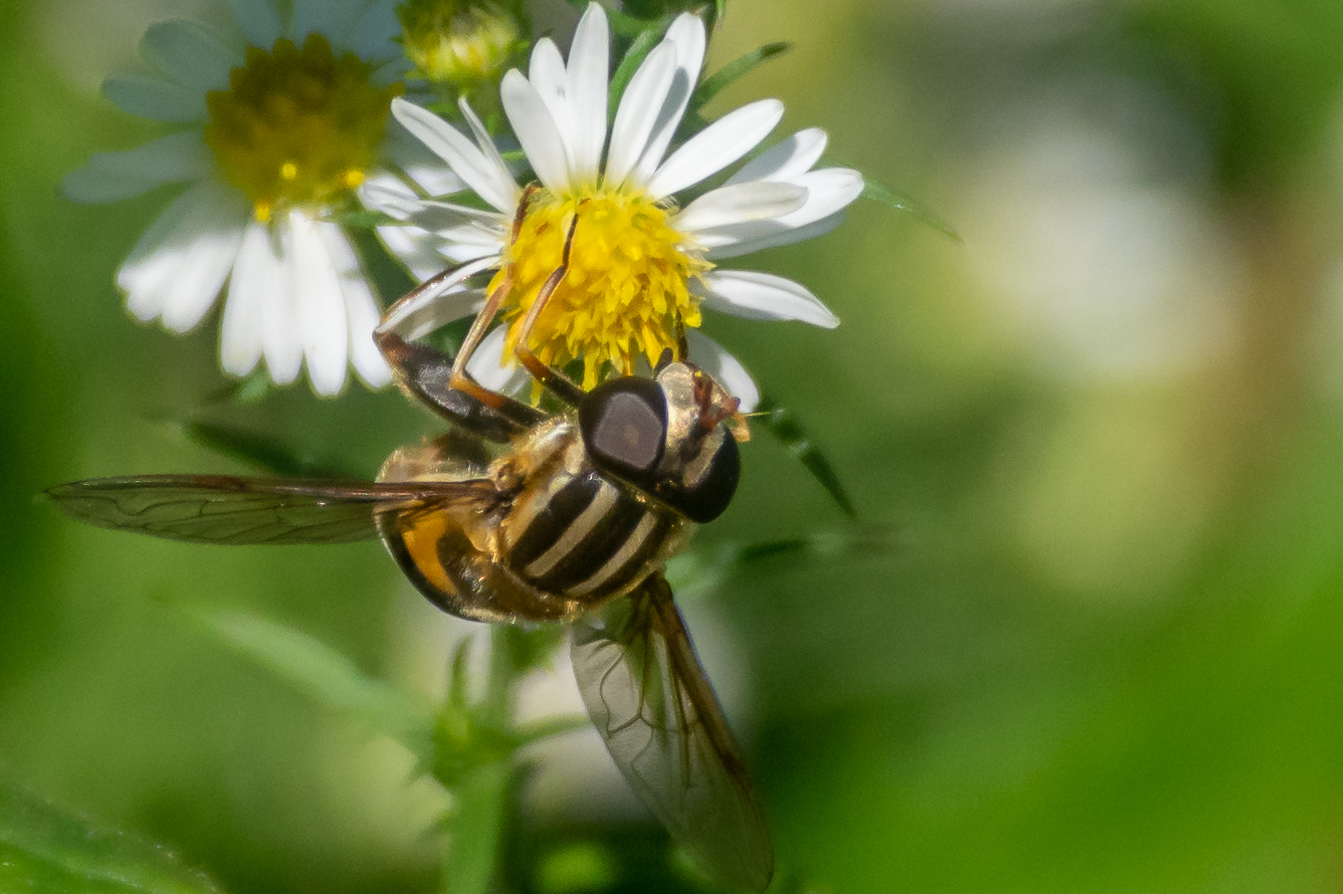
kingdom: Animalia
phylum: Arthropoda
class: Insecta
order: Diptera
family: Syrphidae
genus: Helophilus
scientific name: Helophilus fasciatus
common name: Narrow-headed marsh fly
